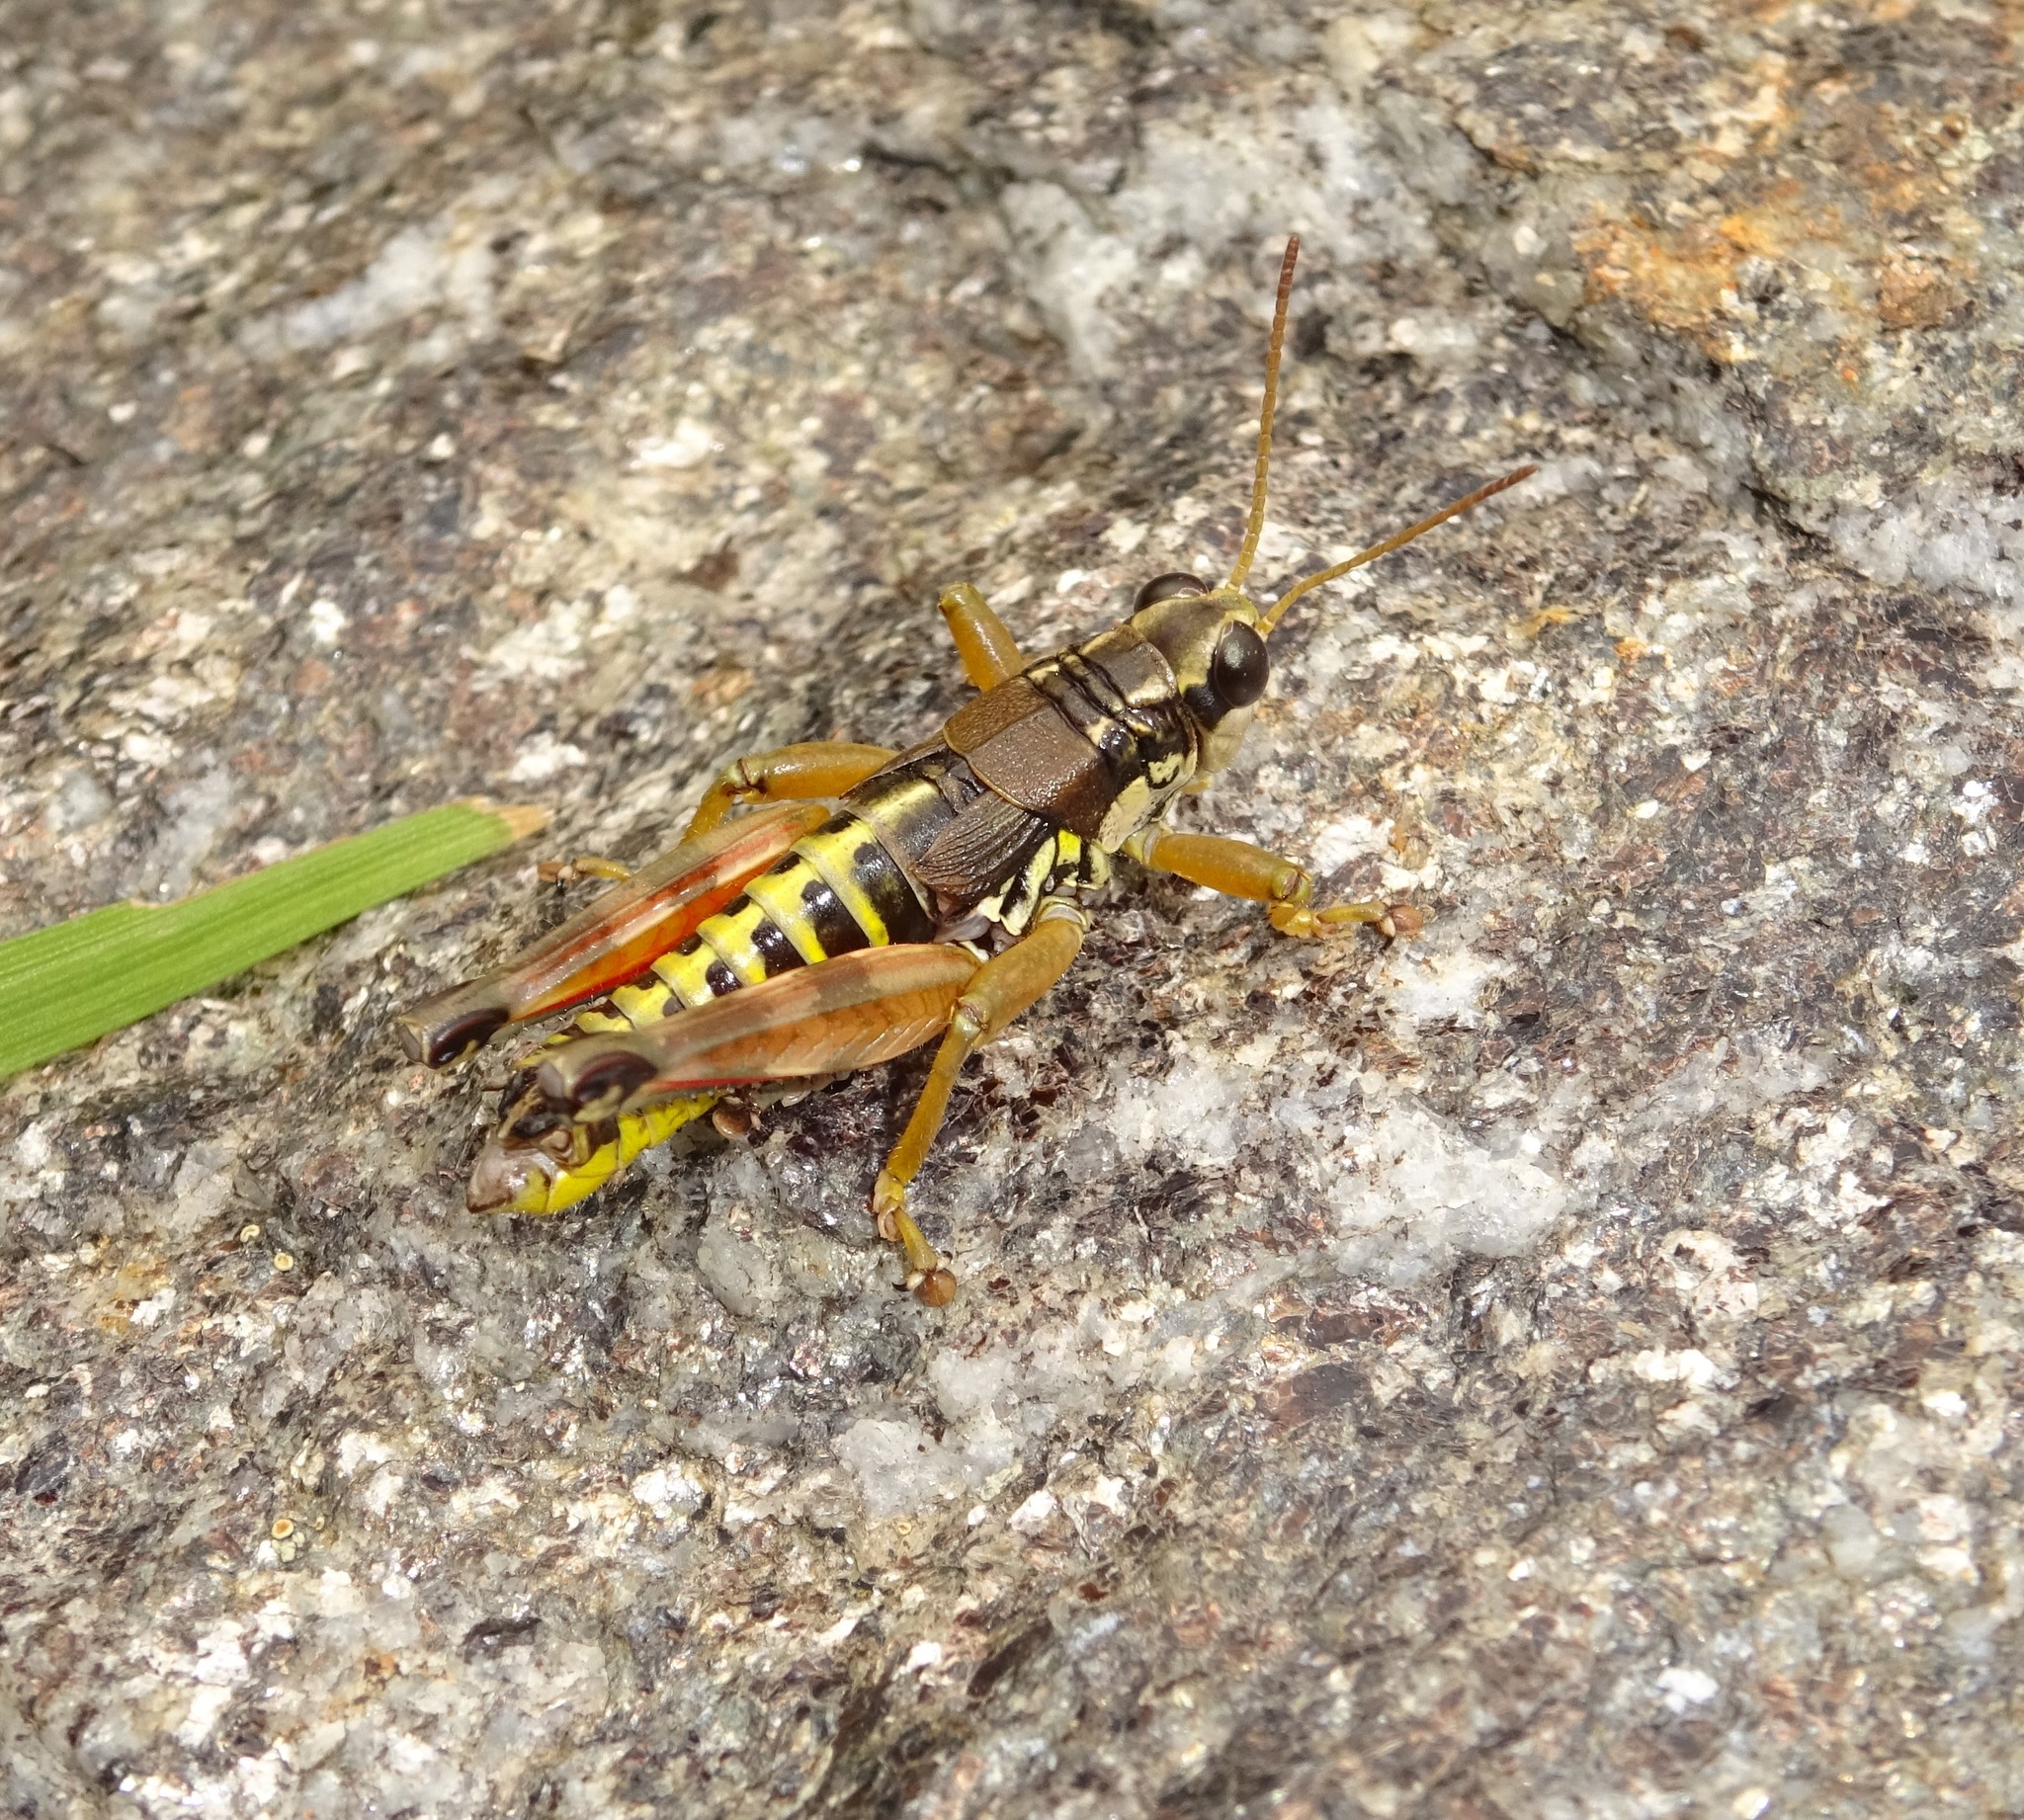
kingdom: Animalia
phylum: Arthropoda
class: Insecta
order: Orthoptera
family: Acrididae
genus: Podisma
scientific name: Podisma pedestris
